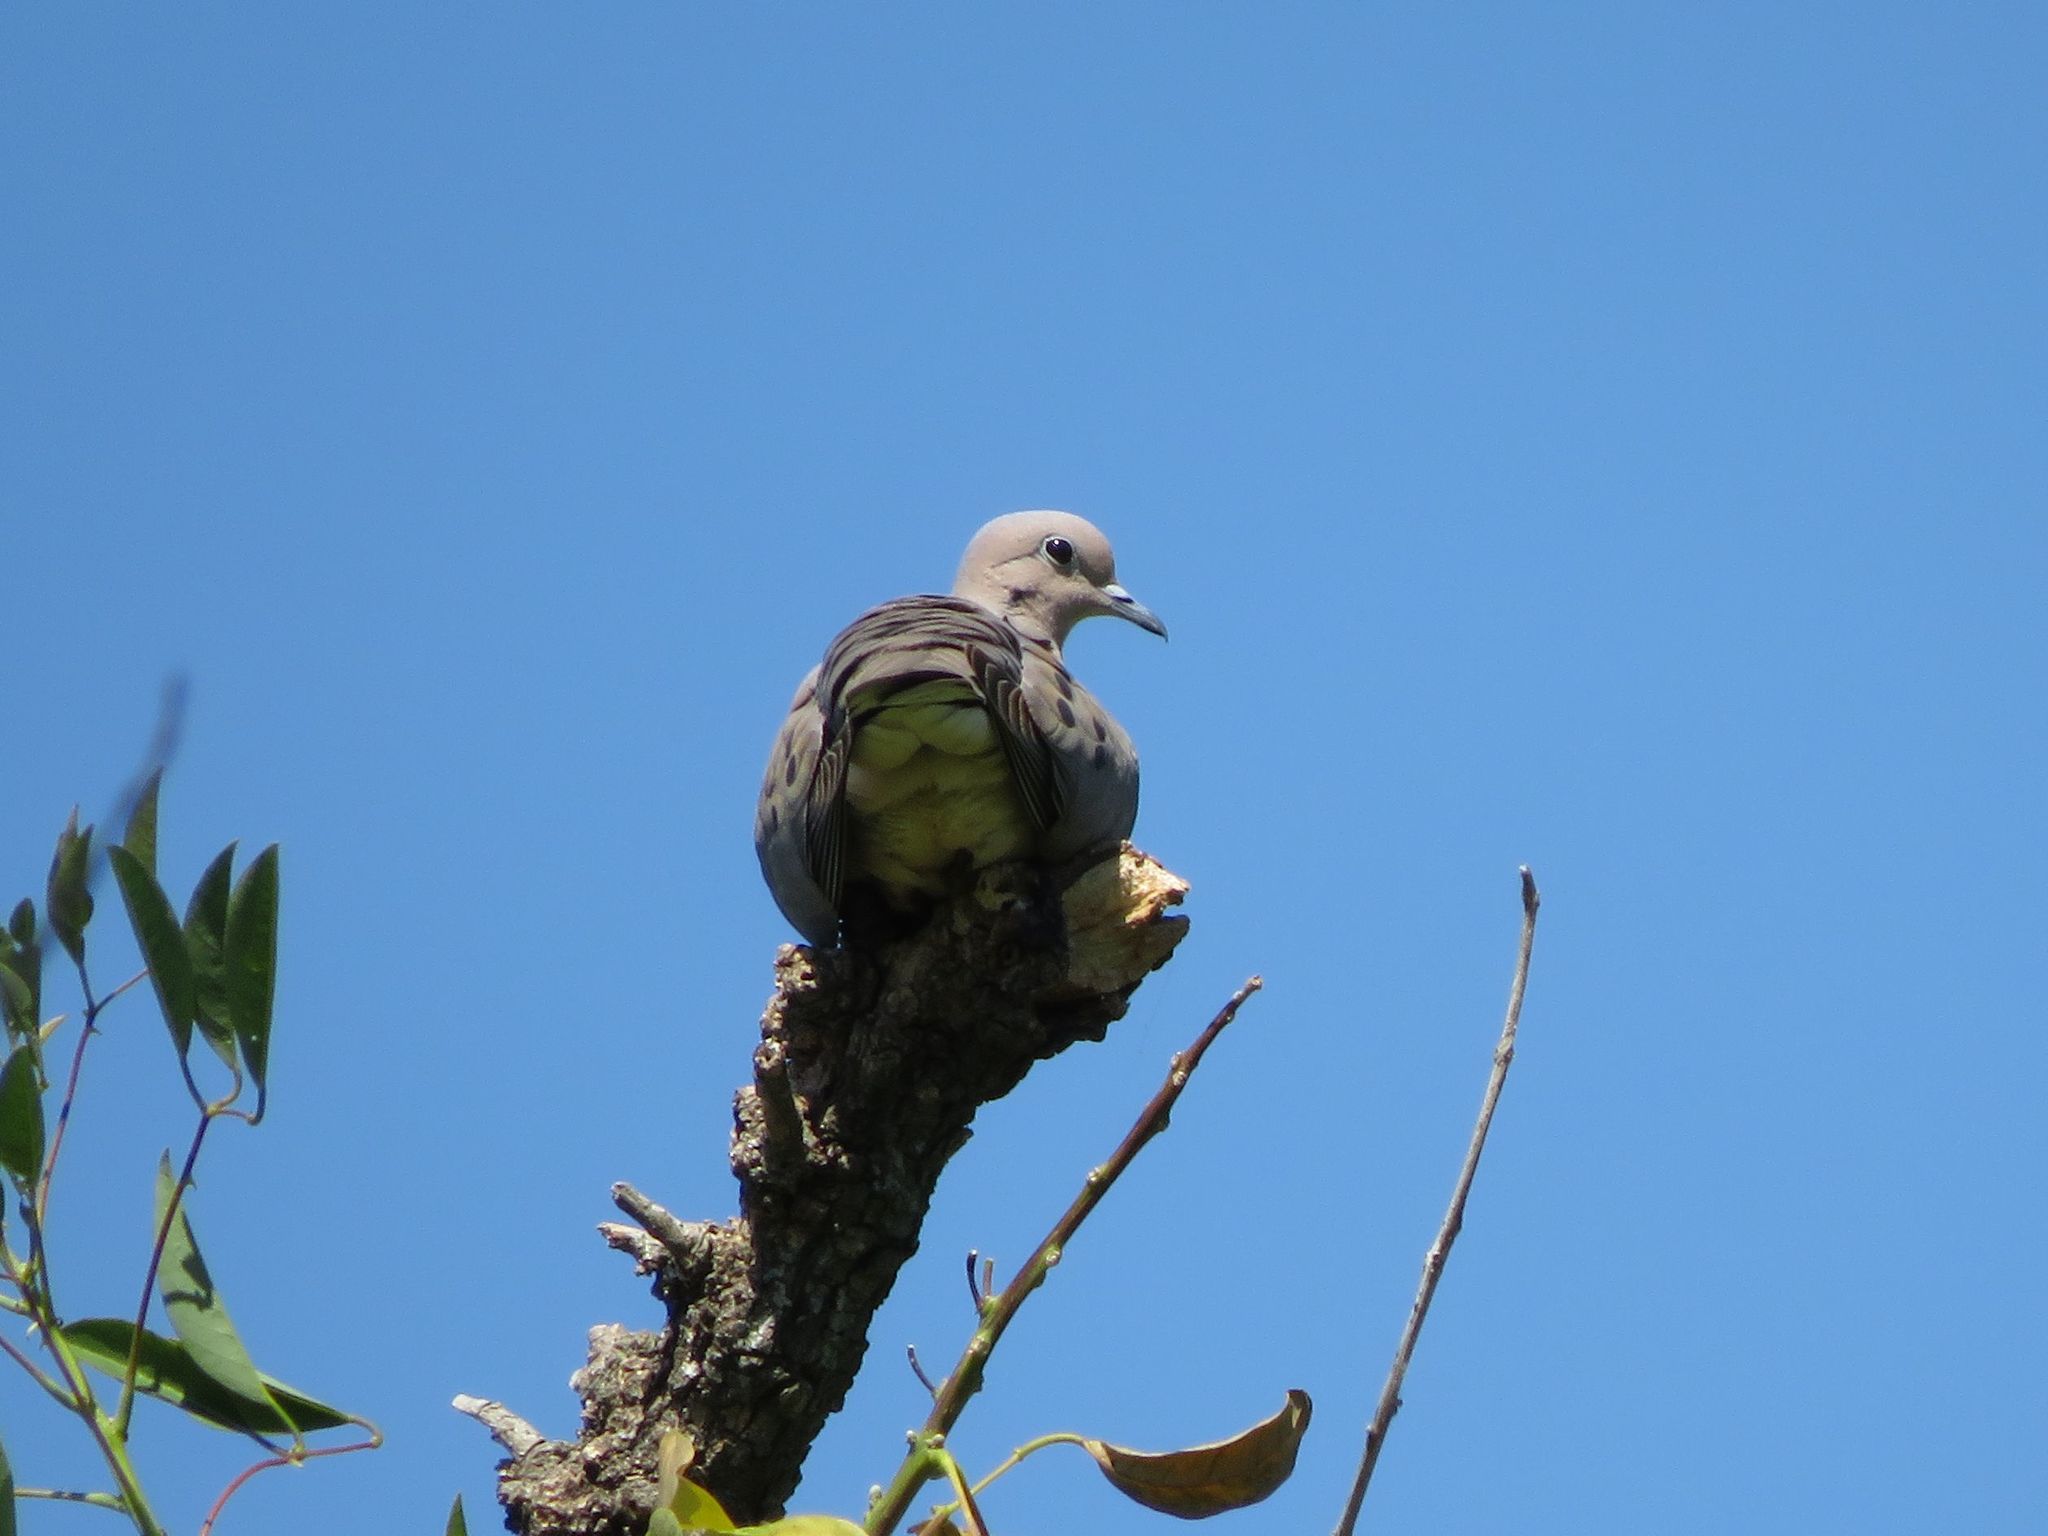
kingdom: Animalia
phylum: Chordata
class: Aves
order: Columbiformes
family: Columbidae
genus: Zenaida
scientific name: Zenaida auriculata
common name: Eared dove
